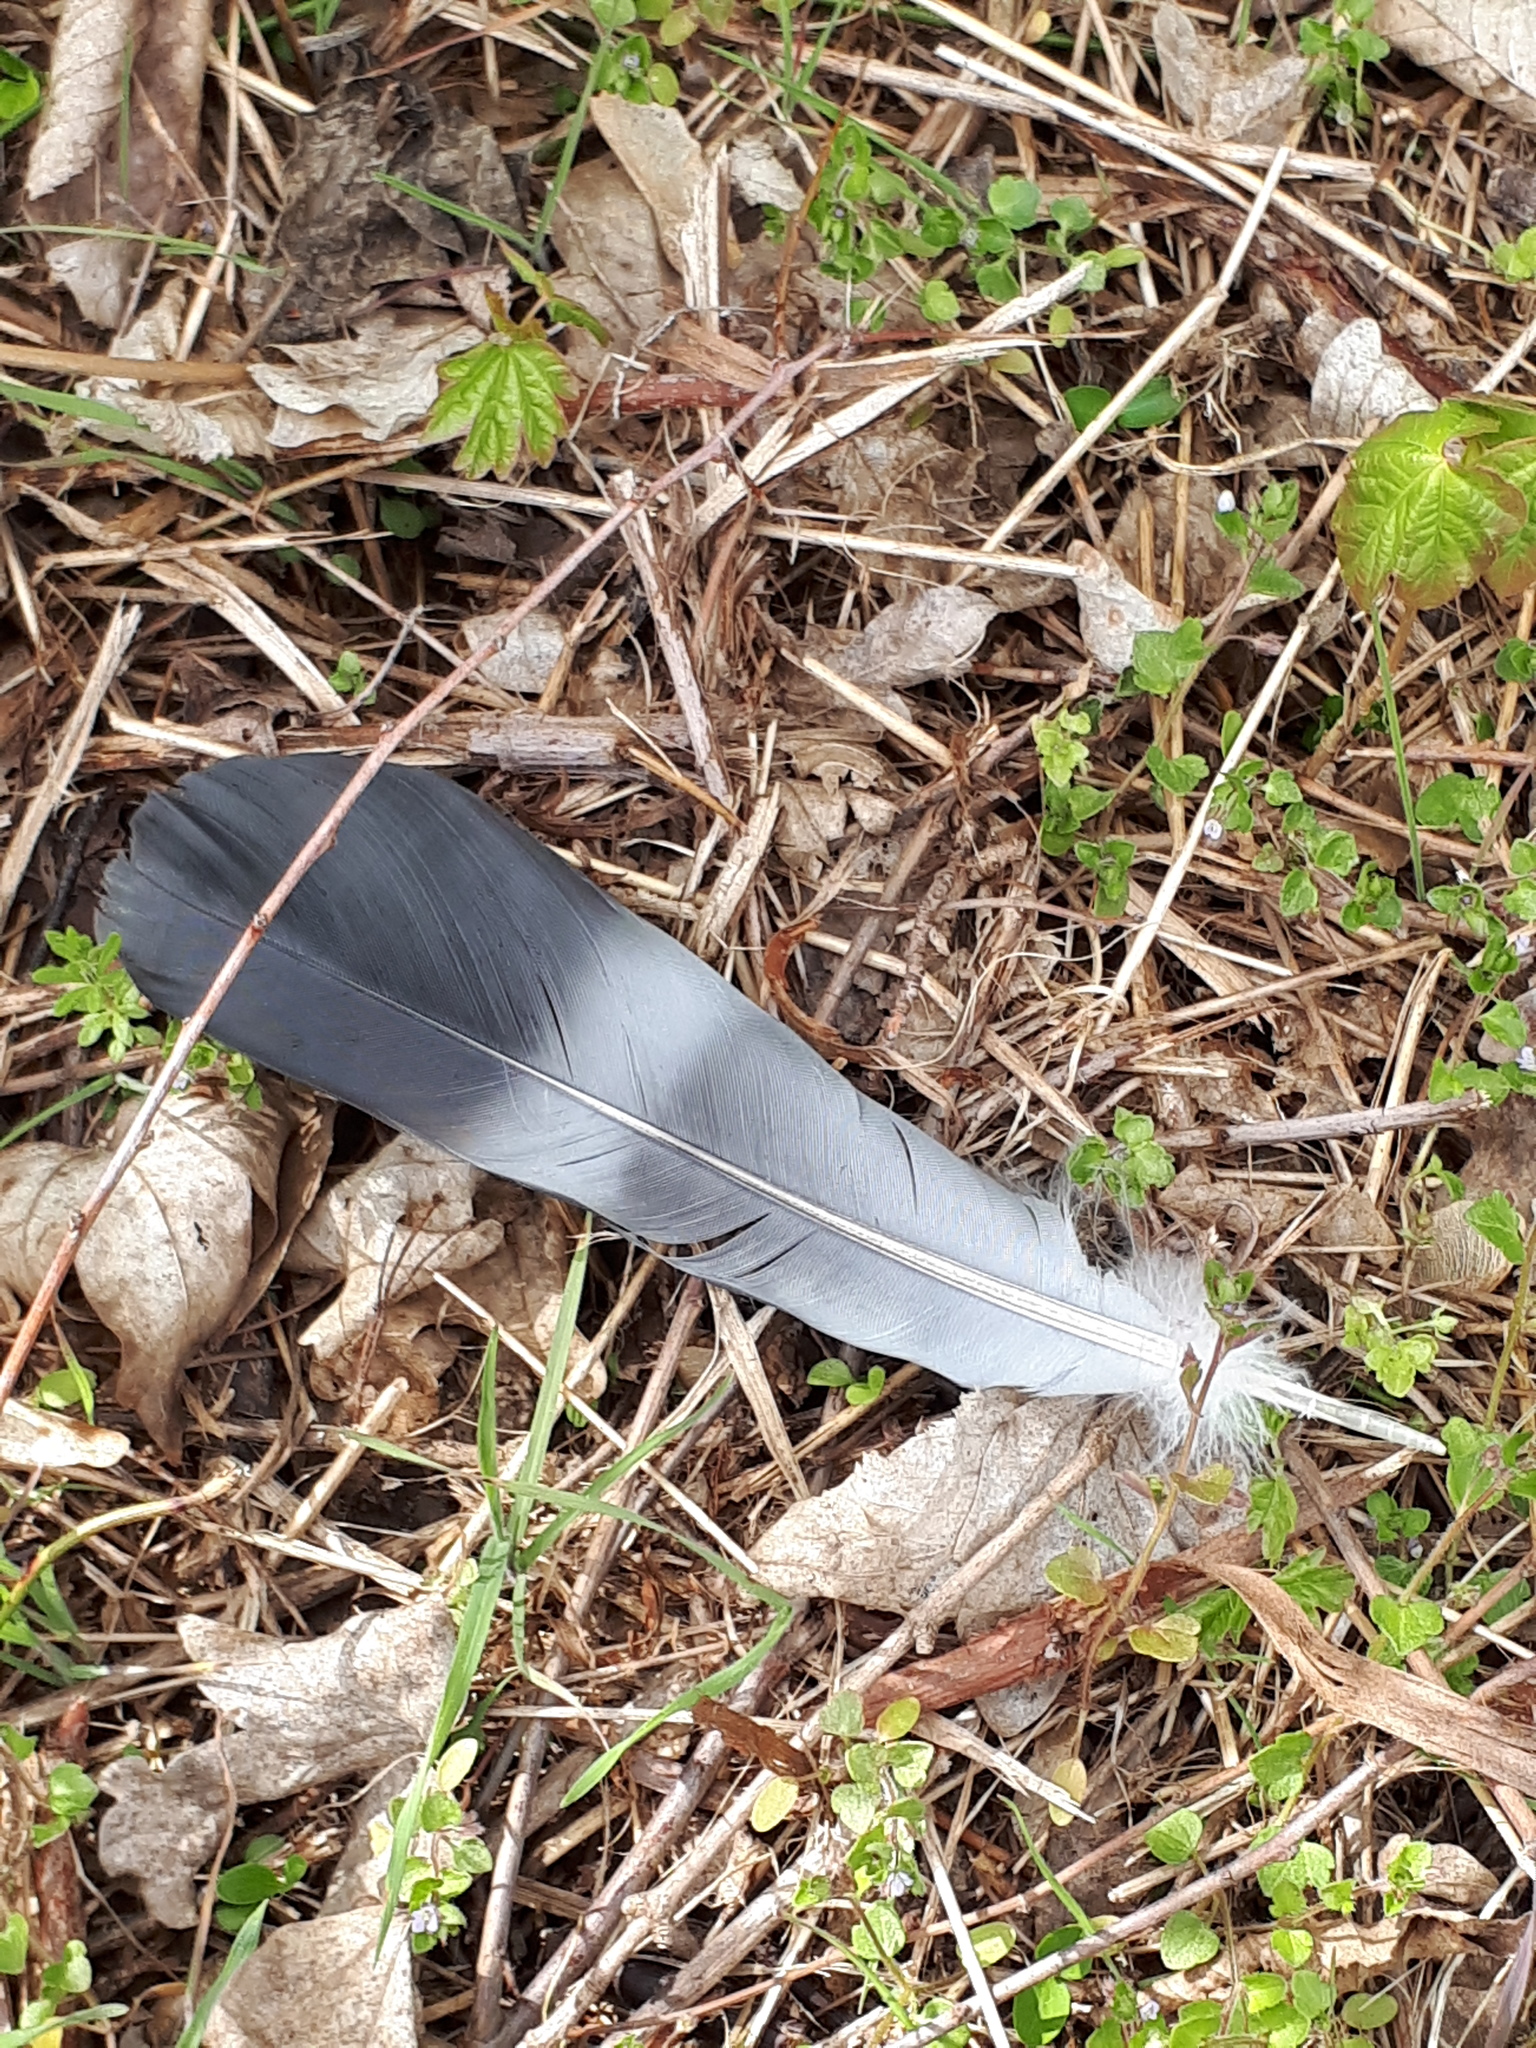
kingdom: Animalia
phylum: Chordata
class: Aves
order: Columbiformes
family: Columbidae
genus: Columba
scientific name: Columba palumbus
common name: Common wood pigeon
